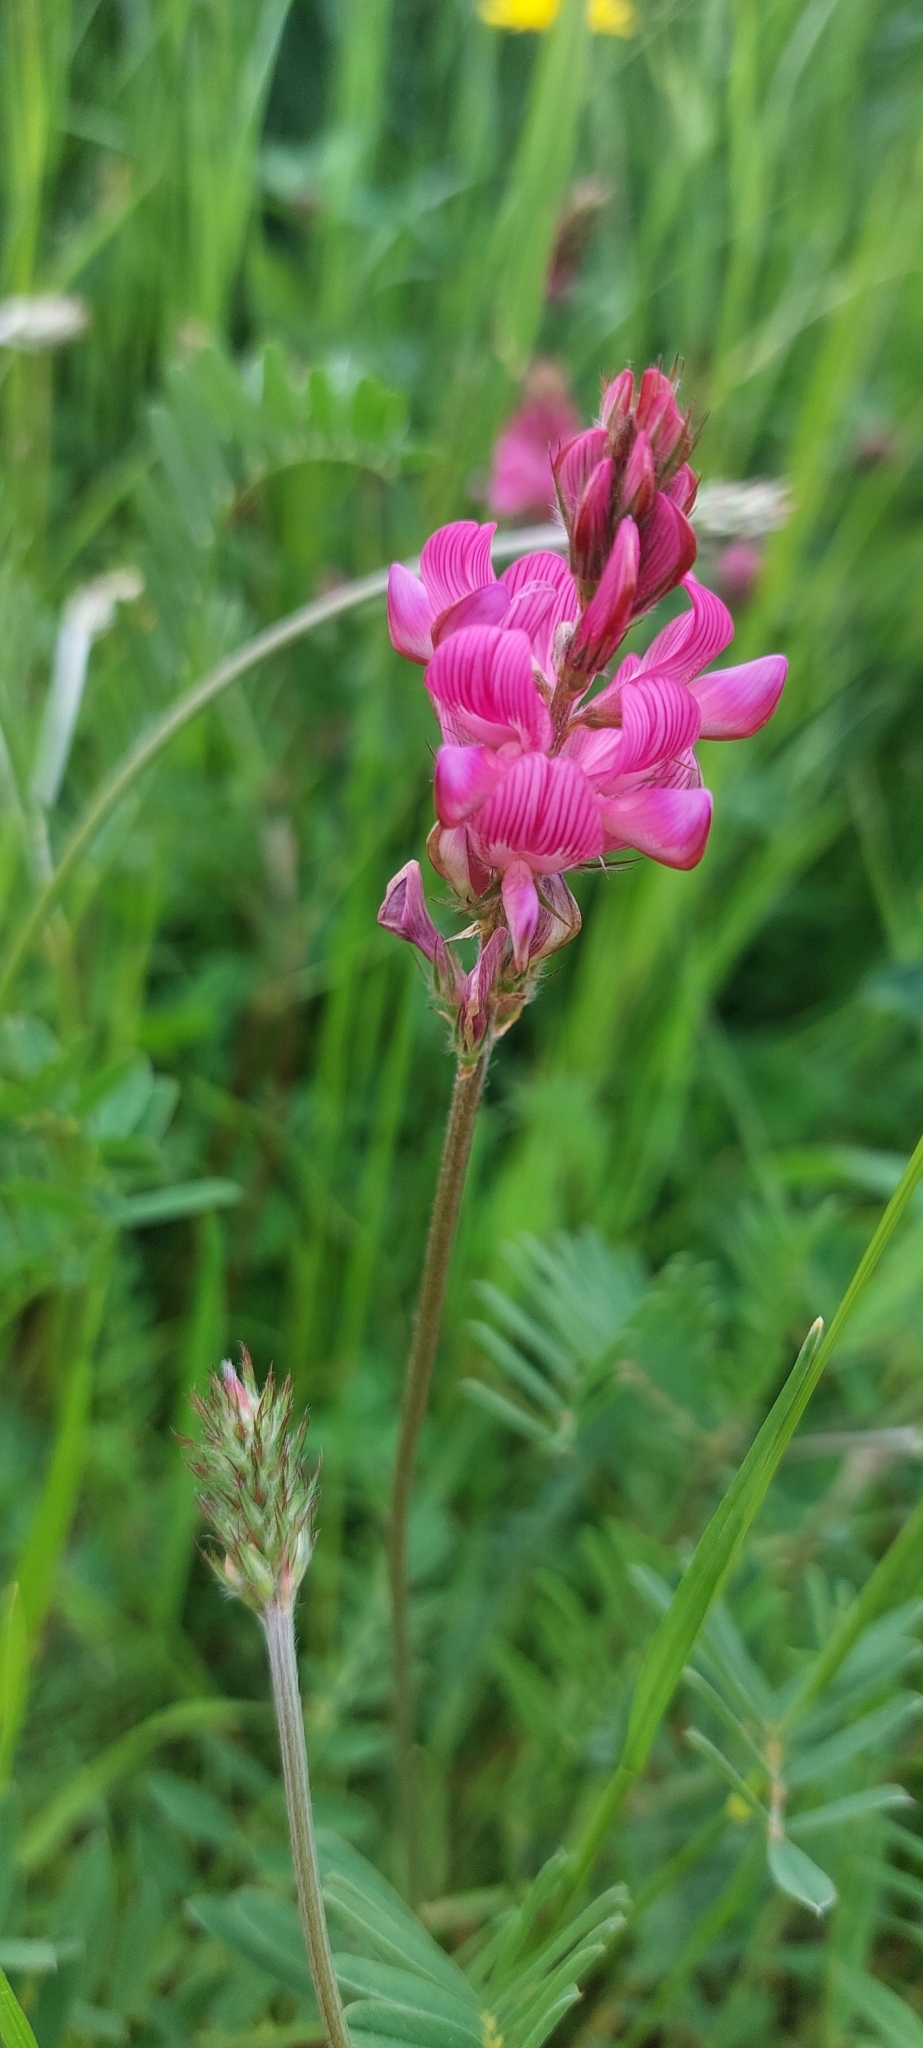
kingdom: Plantae
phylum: Tracheophyta
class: Magnoliopsida
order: Fabales
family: Fabaceae
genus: Onobrychis
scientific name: Onobrychis viciifolia
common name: Sainfoin
